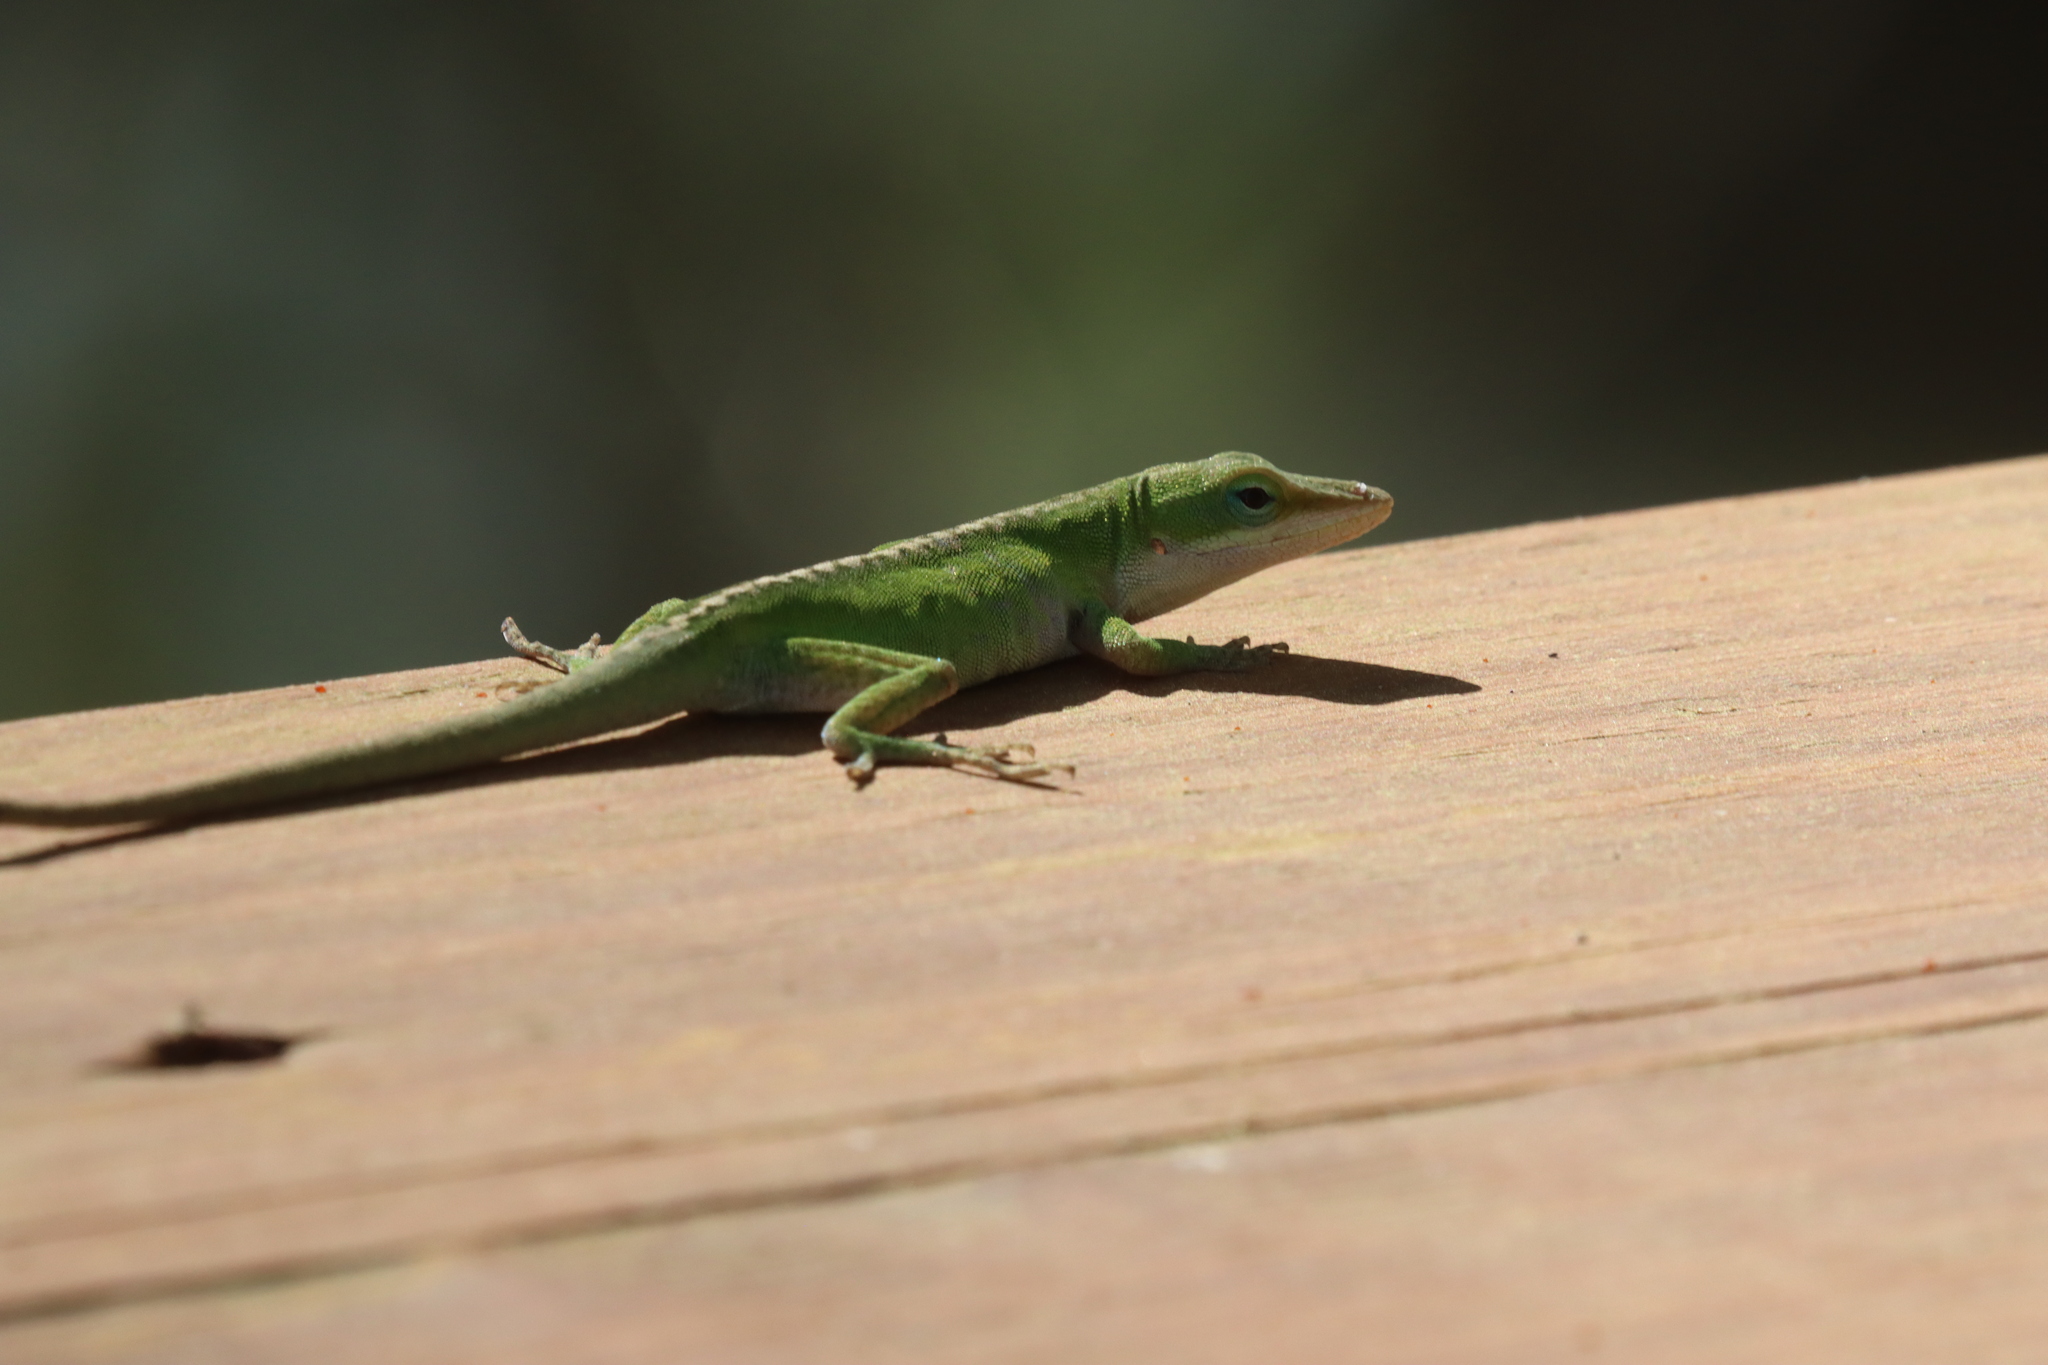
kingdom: Animalia
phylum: Chordata
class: Squamata
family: Dactyloidae
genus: Anolis
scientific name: Anolis carolinensis
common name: Green anole
